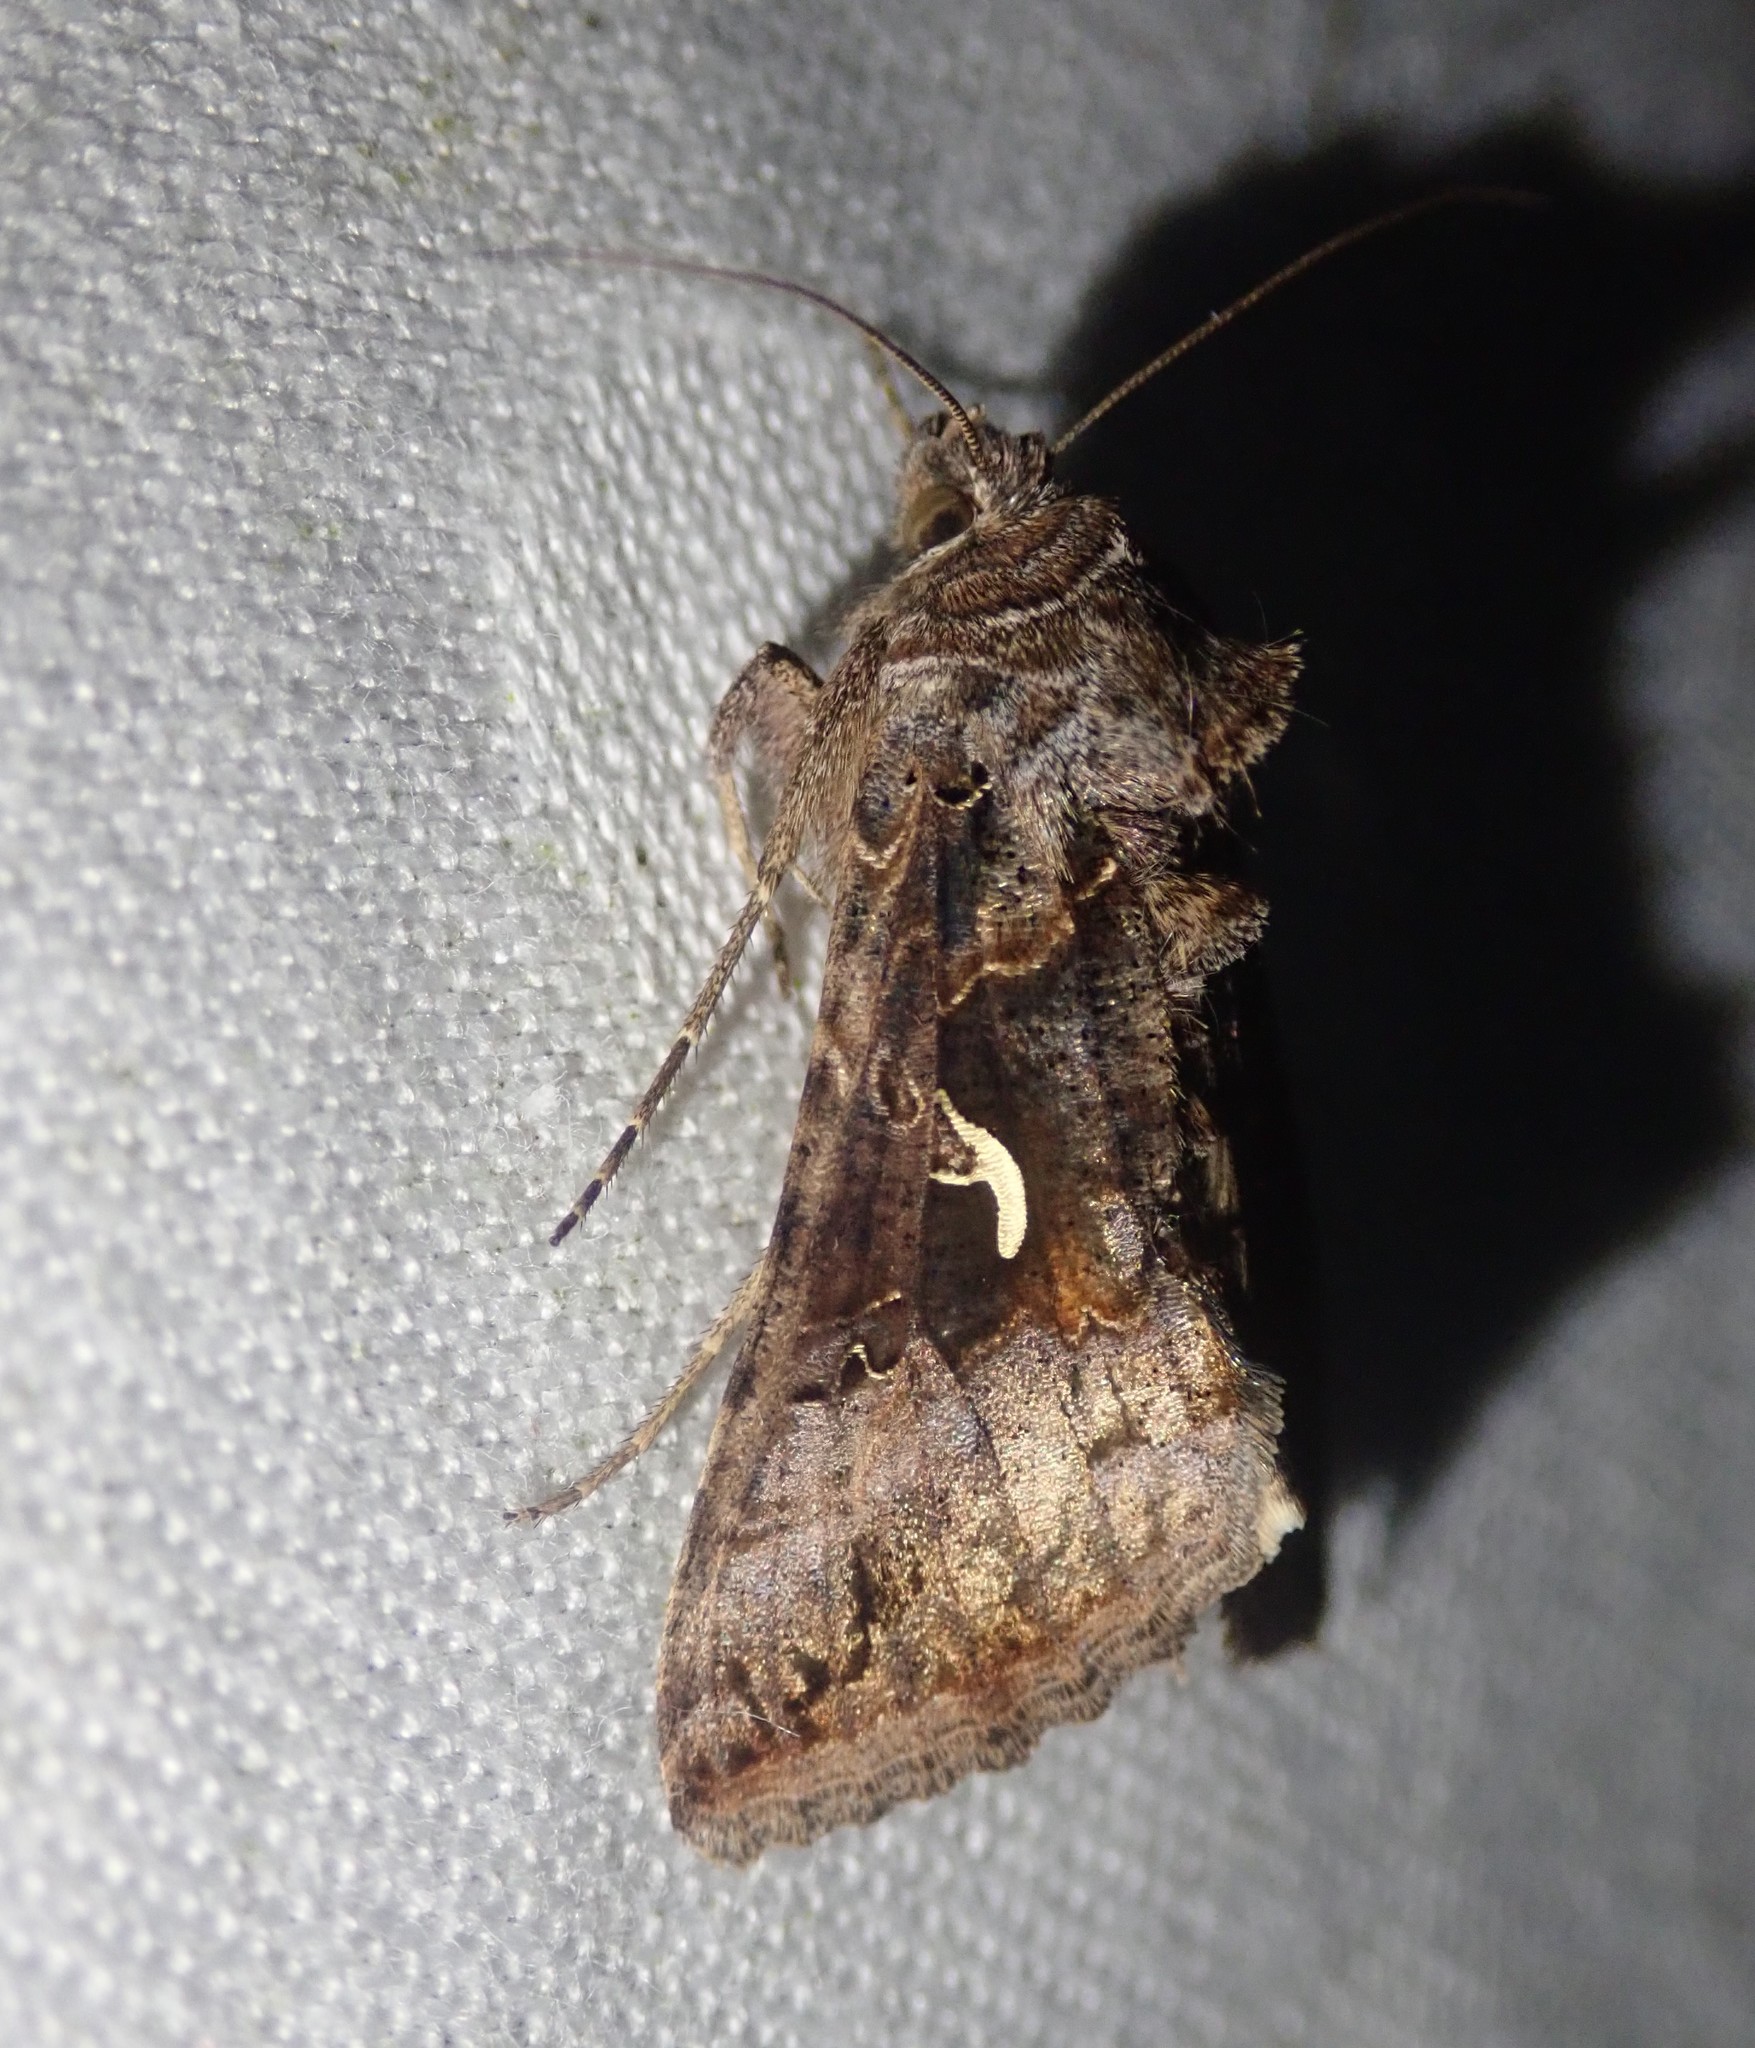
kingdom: Animalia
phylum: Arthropoda
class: Insecta
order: Lepidoptera
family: Noctuidae
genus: Autographa
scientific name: Autographa gamma
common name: Silver y
